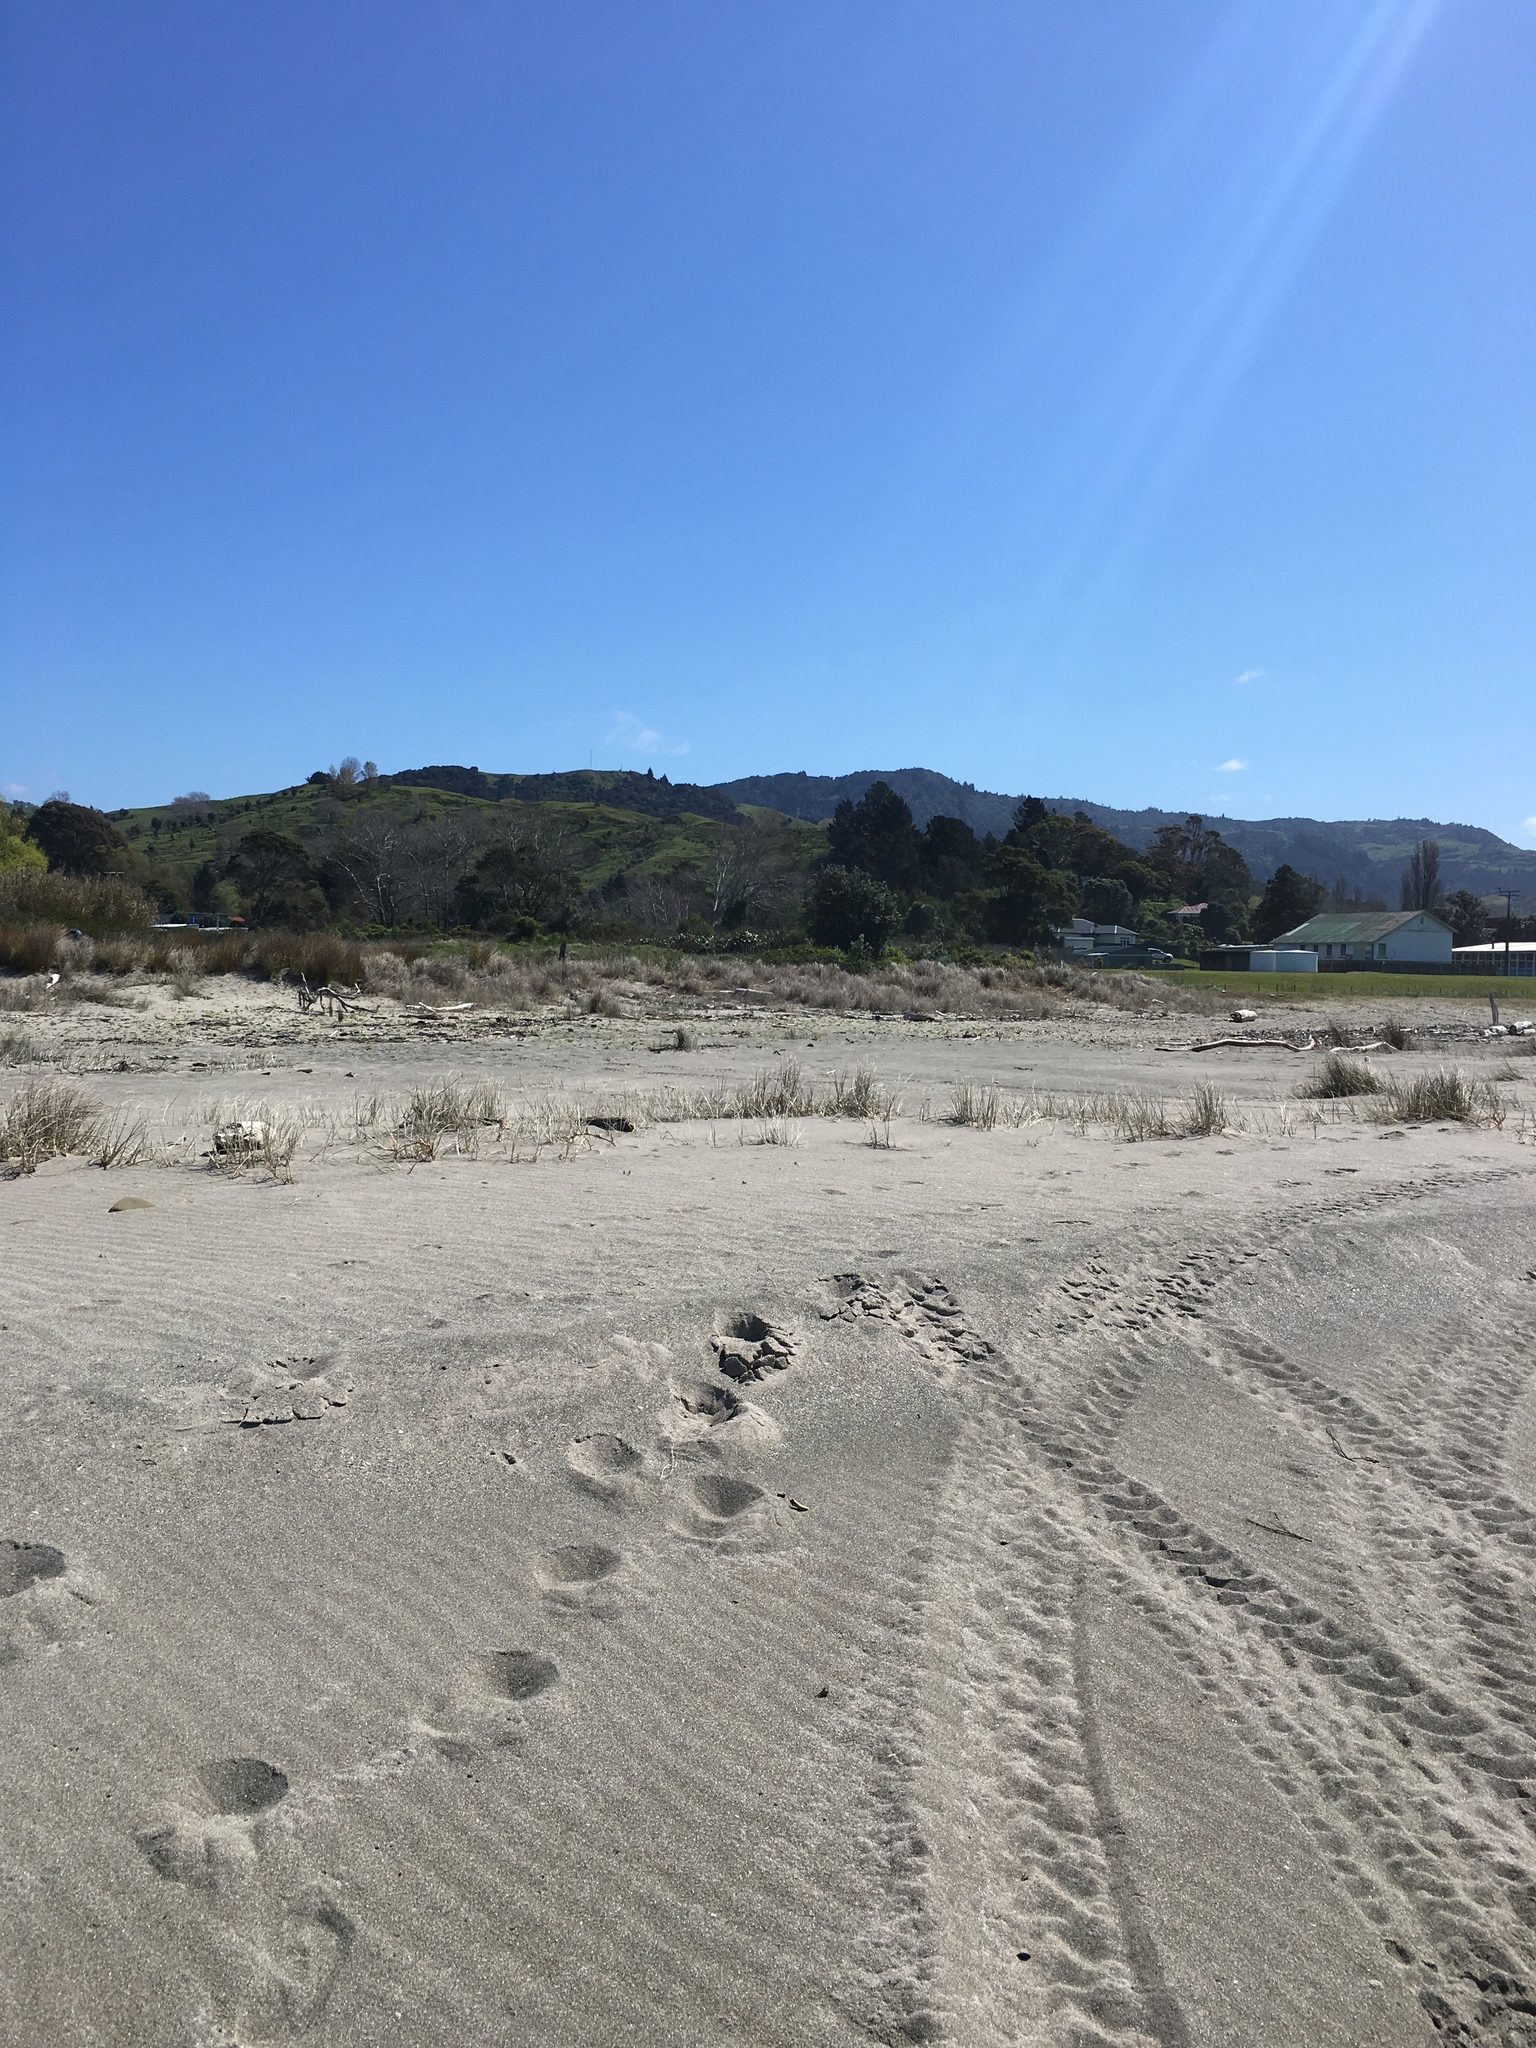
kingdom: Plantae
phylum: Tracheophyta
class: Liliopsida
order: Poales
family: Poaceae
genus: Spinifex
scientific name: Spinifex sericeus
